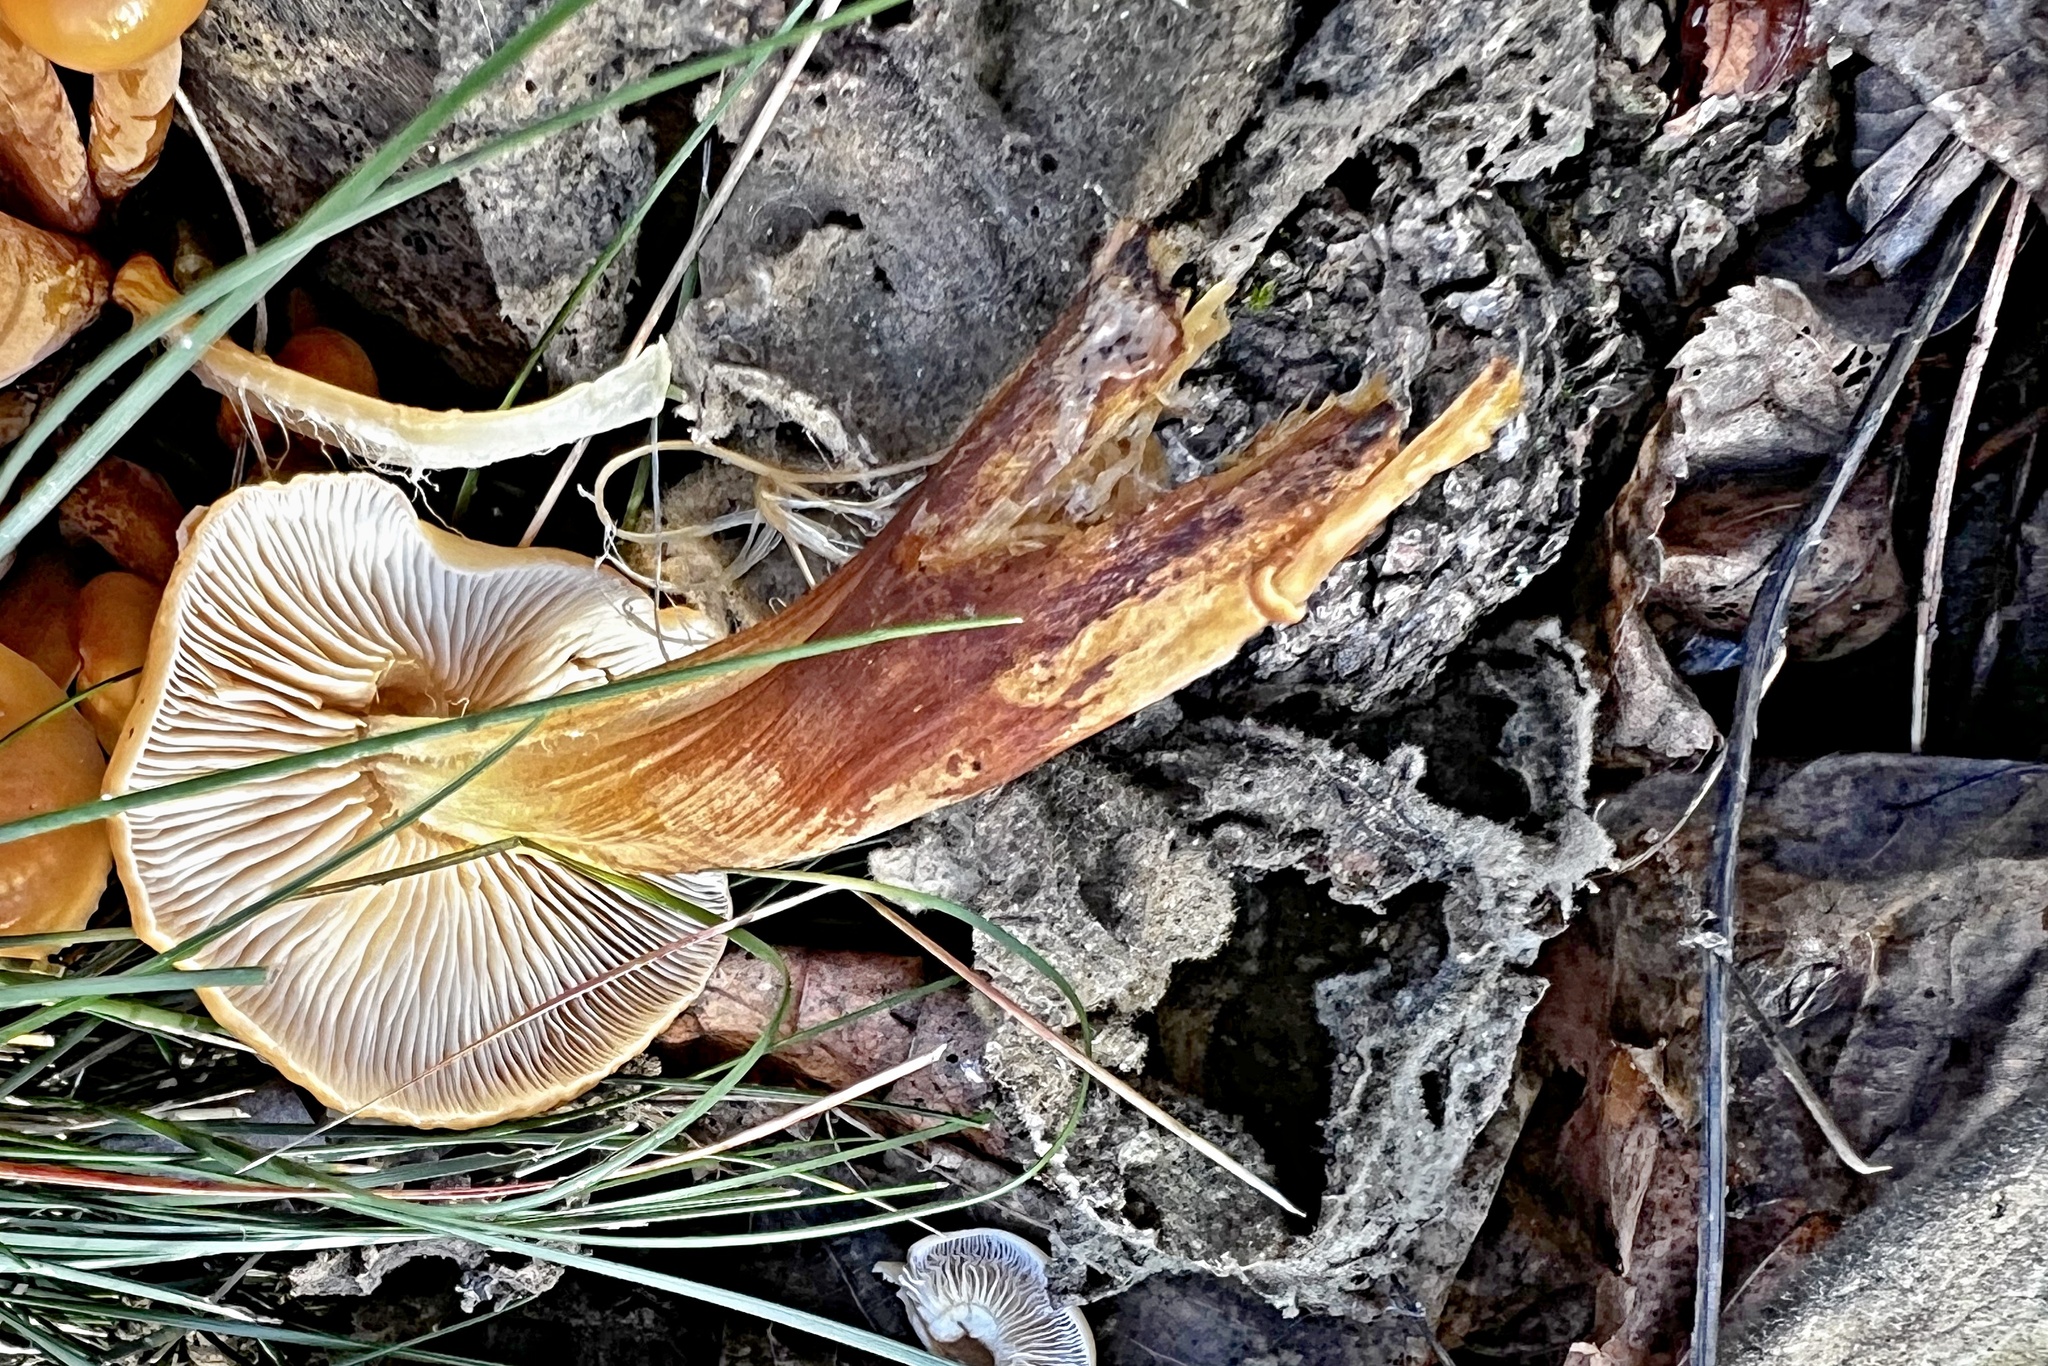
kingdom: Fungi
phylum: Basidiomycota
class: Agaricomycetes
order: Agaricales
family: Physalacriaceae
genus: Flammulina
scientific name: Flammulina
